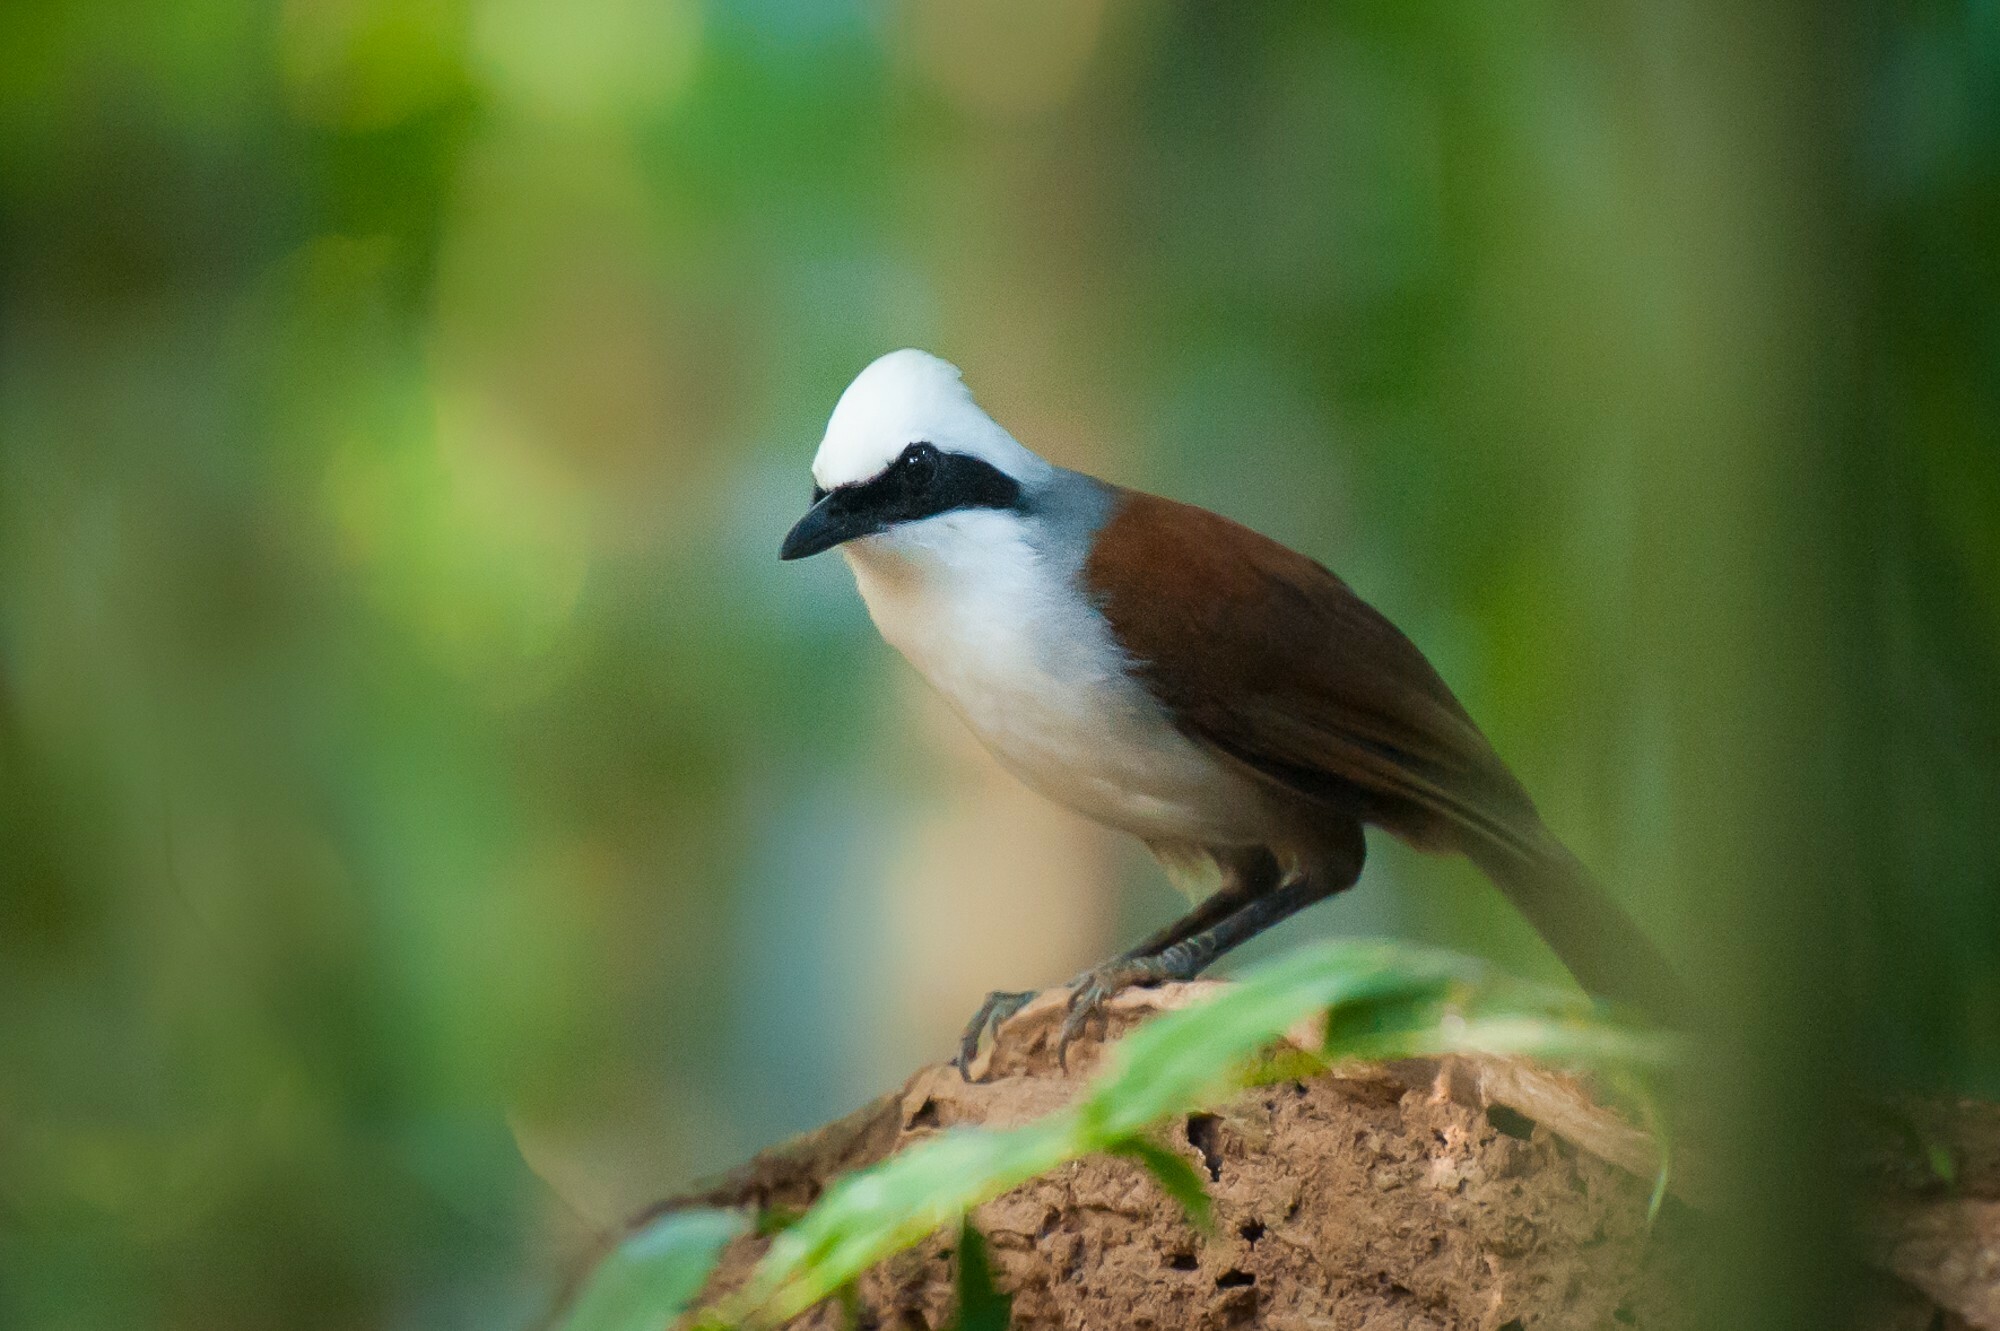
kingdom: Animalia
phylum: Chordata
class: Aves
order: Passeriformes
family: Leiothrichidae
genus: Garrulax
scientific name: Garrulax leucolophus
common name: White-crested laughingthrush
